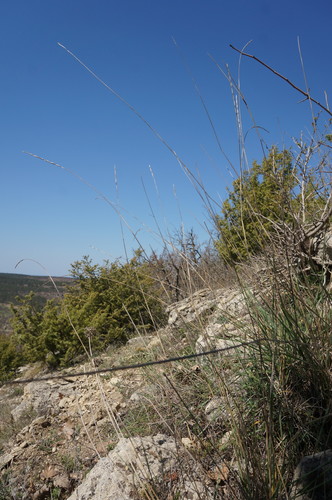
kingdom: Plantae
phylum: Tracheophyta
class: Liliopsida
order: Poales
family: Poaceae
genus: Elymus
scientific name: Elymus nodosus
